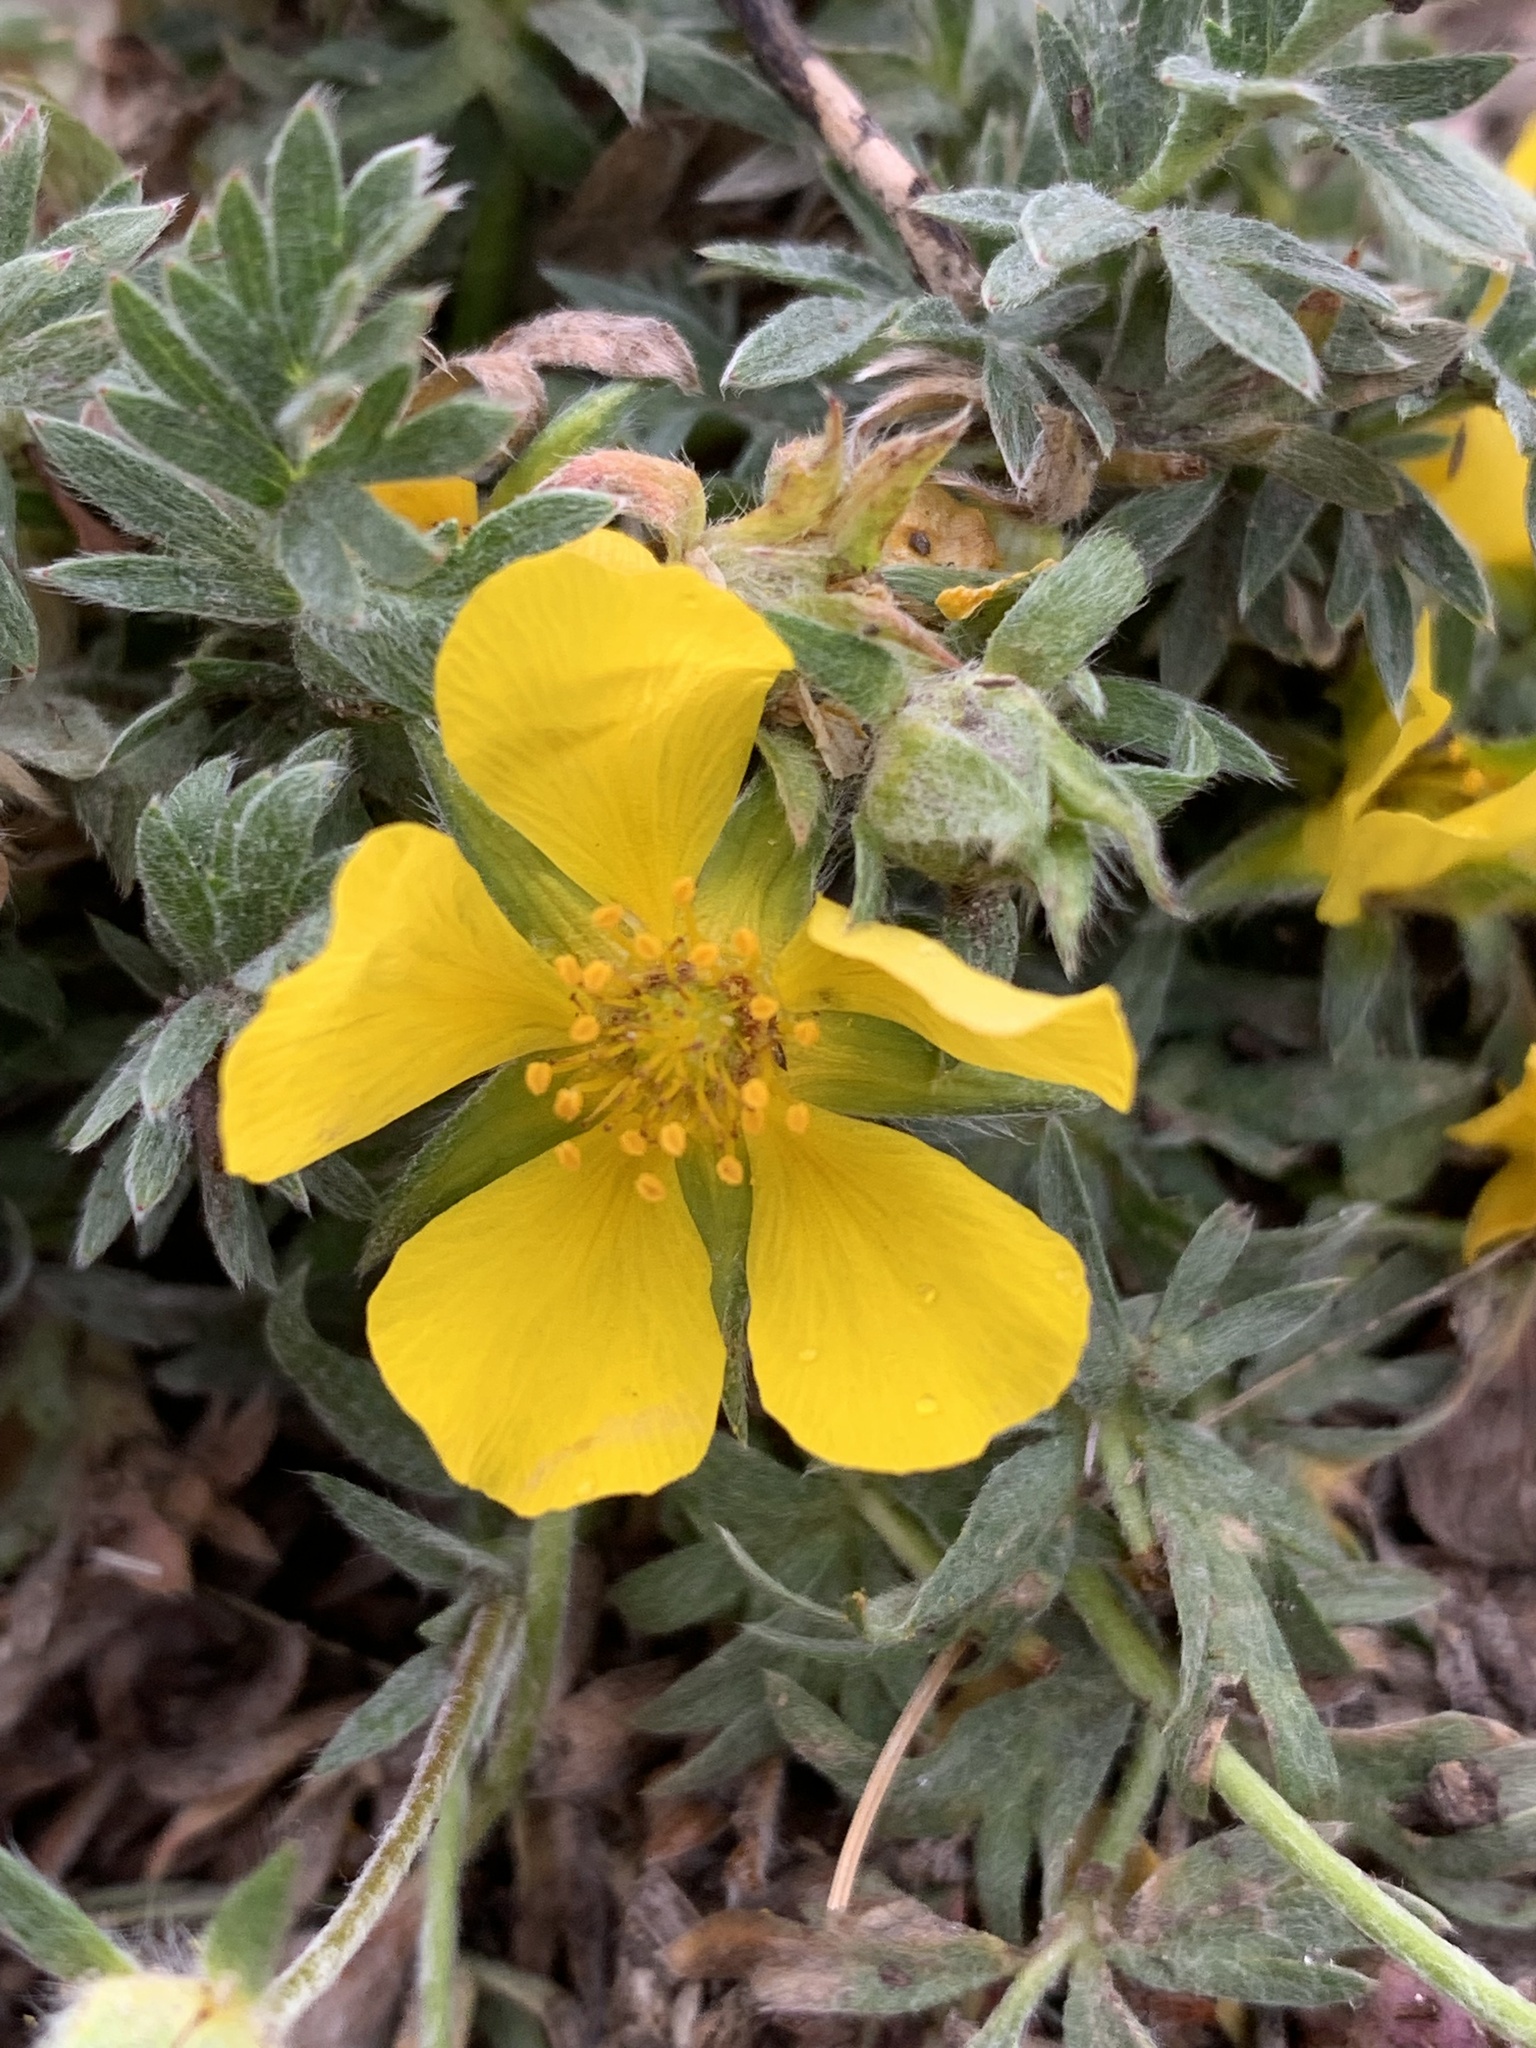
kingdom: Plantae
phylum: Tracheophyta
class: Magnoliopsida
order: Rosales
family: Rosaceae
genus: Dasiphora
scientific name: Dasiphora fruticosa
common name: Shrubby cinquefoil
